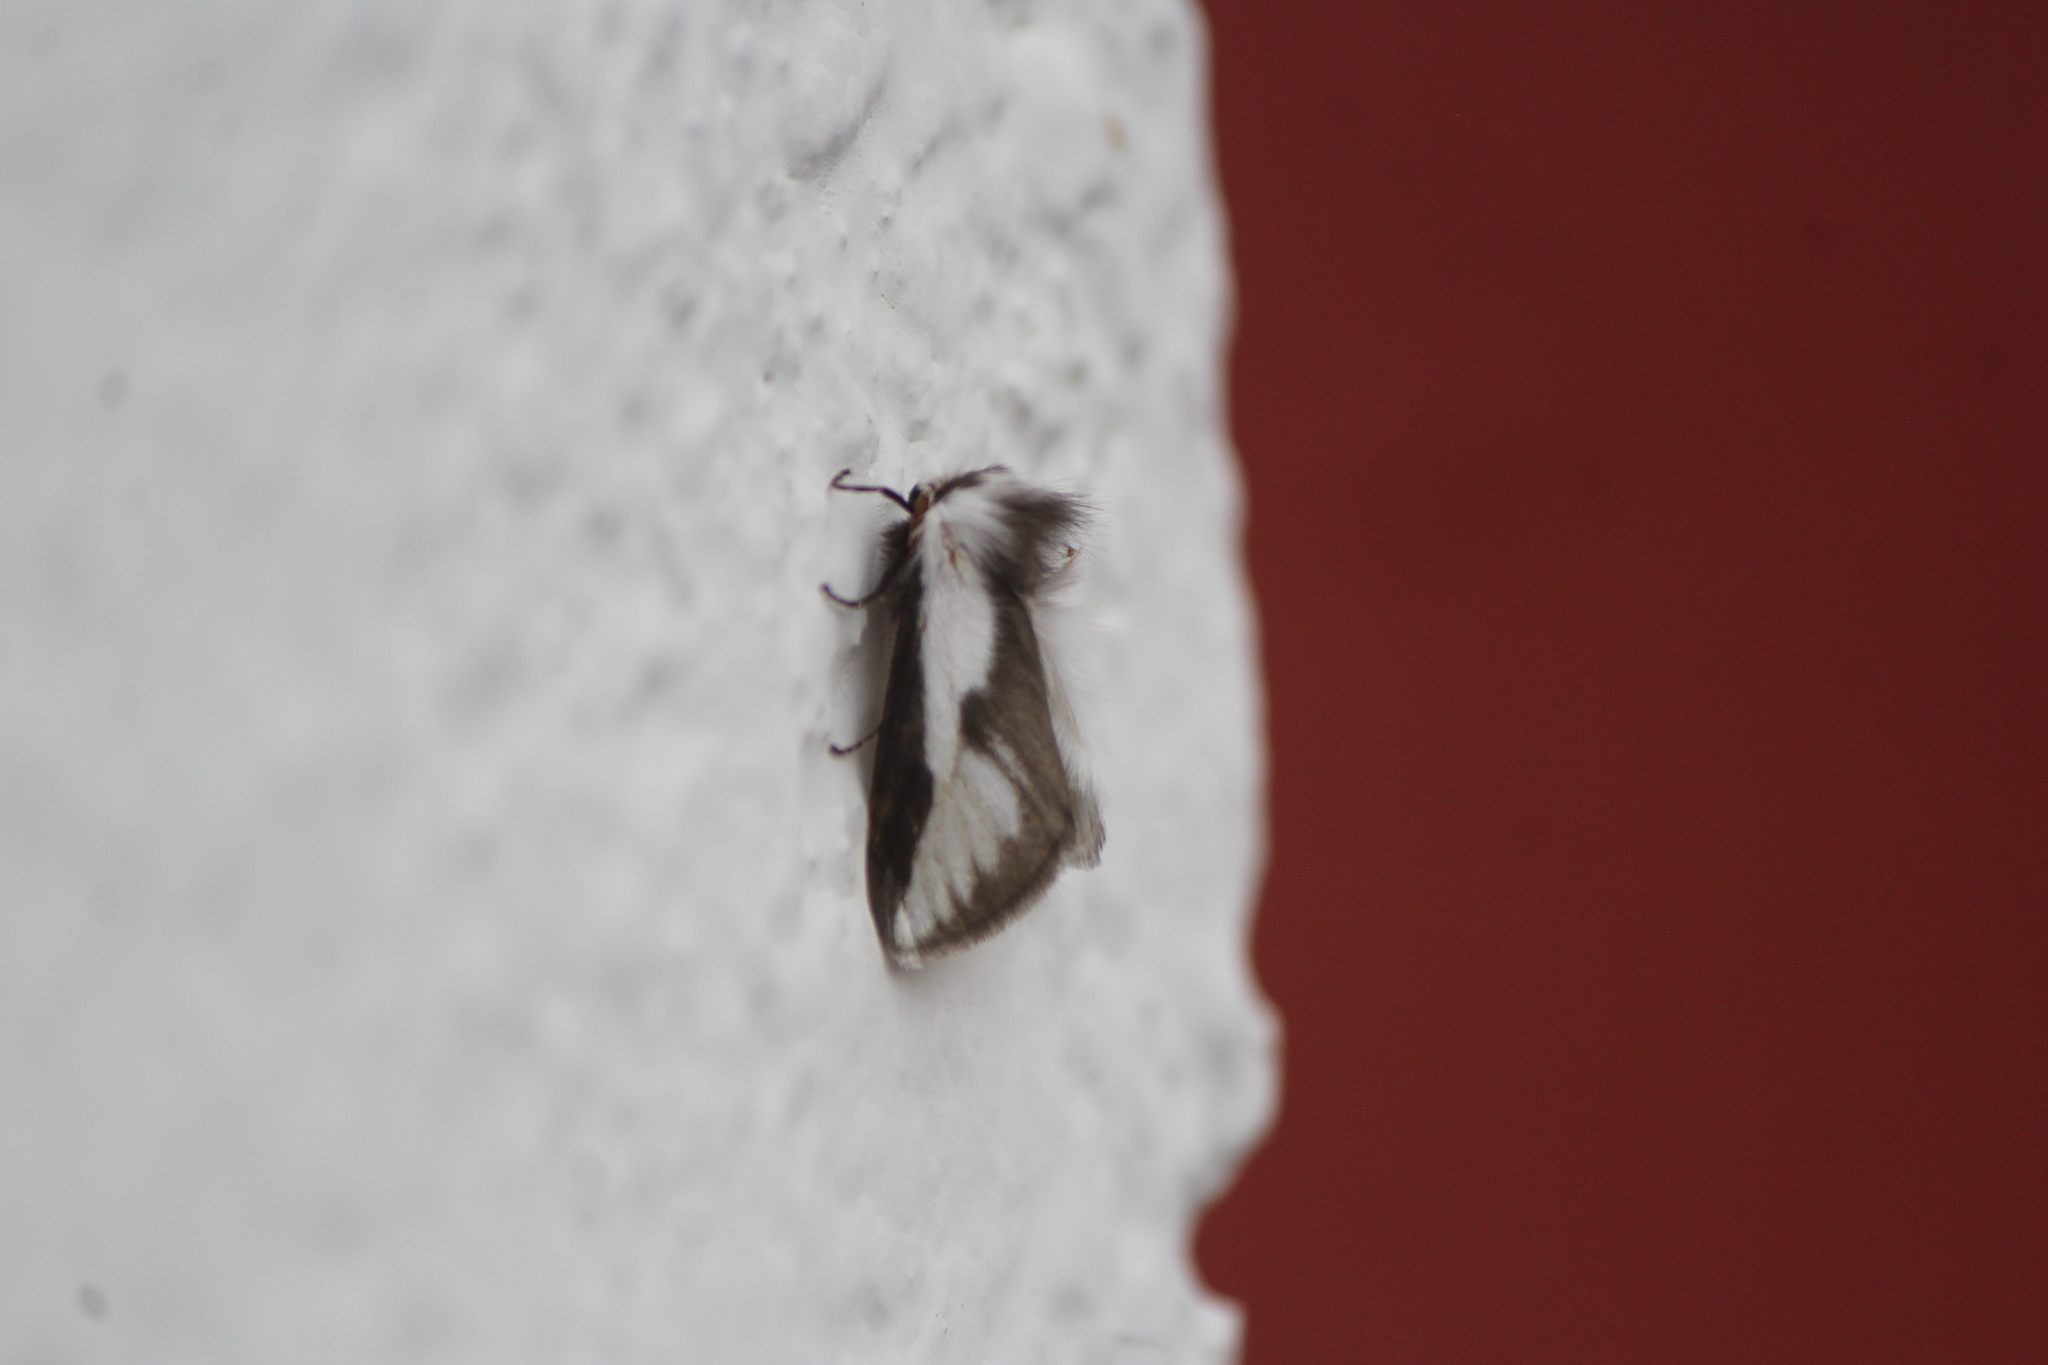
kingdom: Animalia
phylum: Arthropoda
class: Insecta
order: Lepidoptera
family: Megalopygidae
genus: Norape
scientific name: Norape tener
